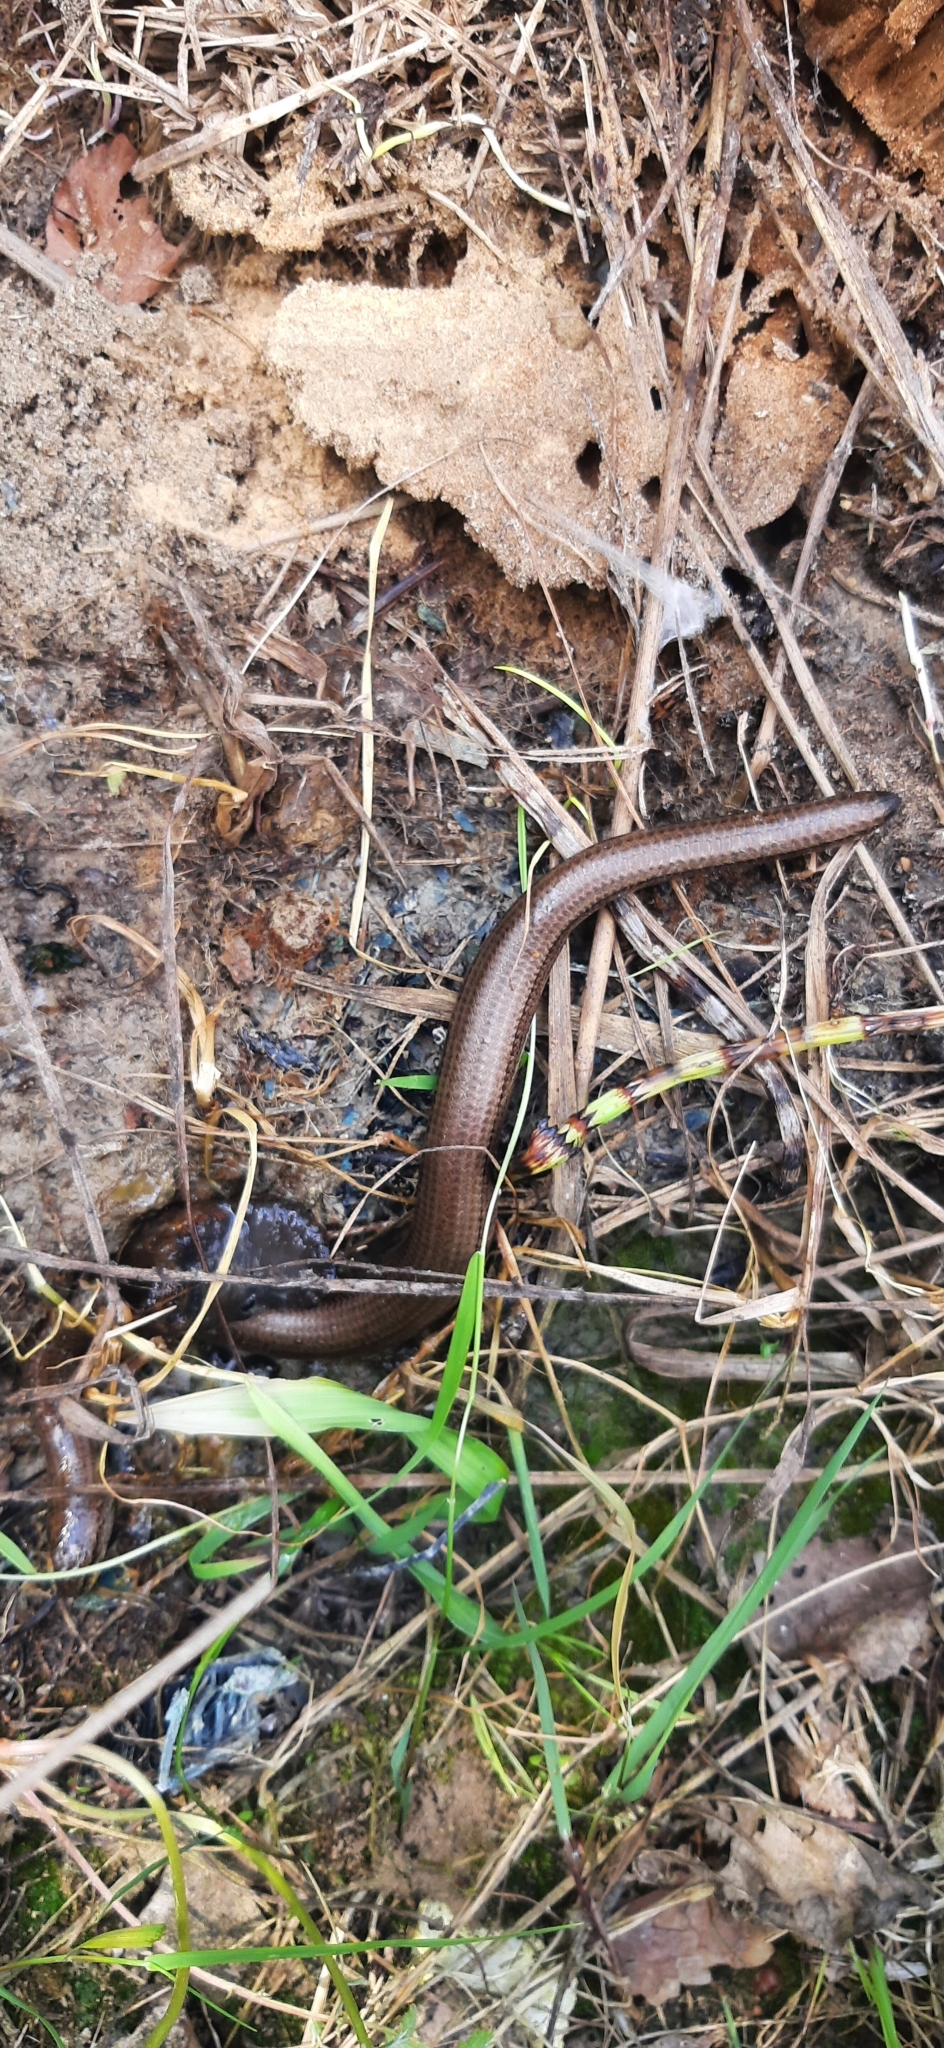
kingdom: Animalia
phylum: Chordata
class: Squamata
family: Anguidae
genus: Anguis
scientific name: Anguis fragilis
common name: Slow worm
